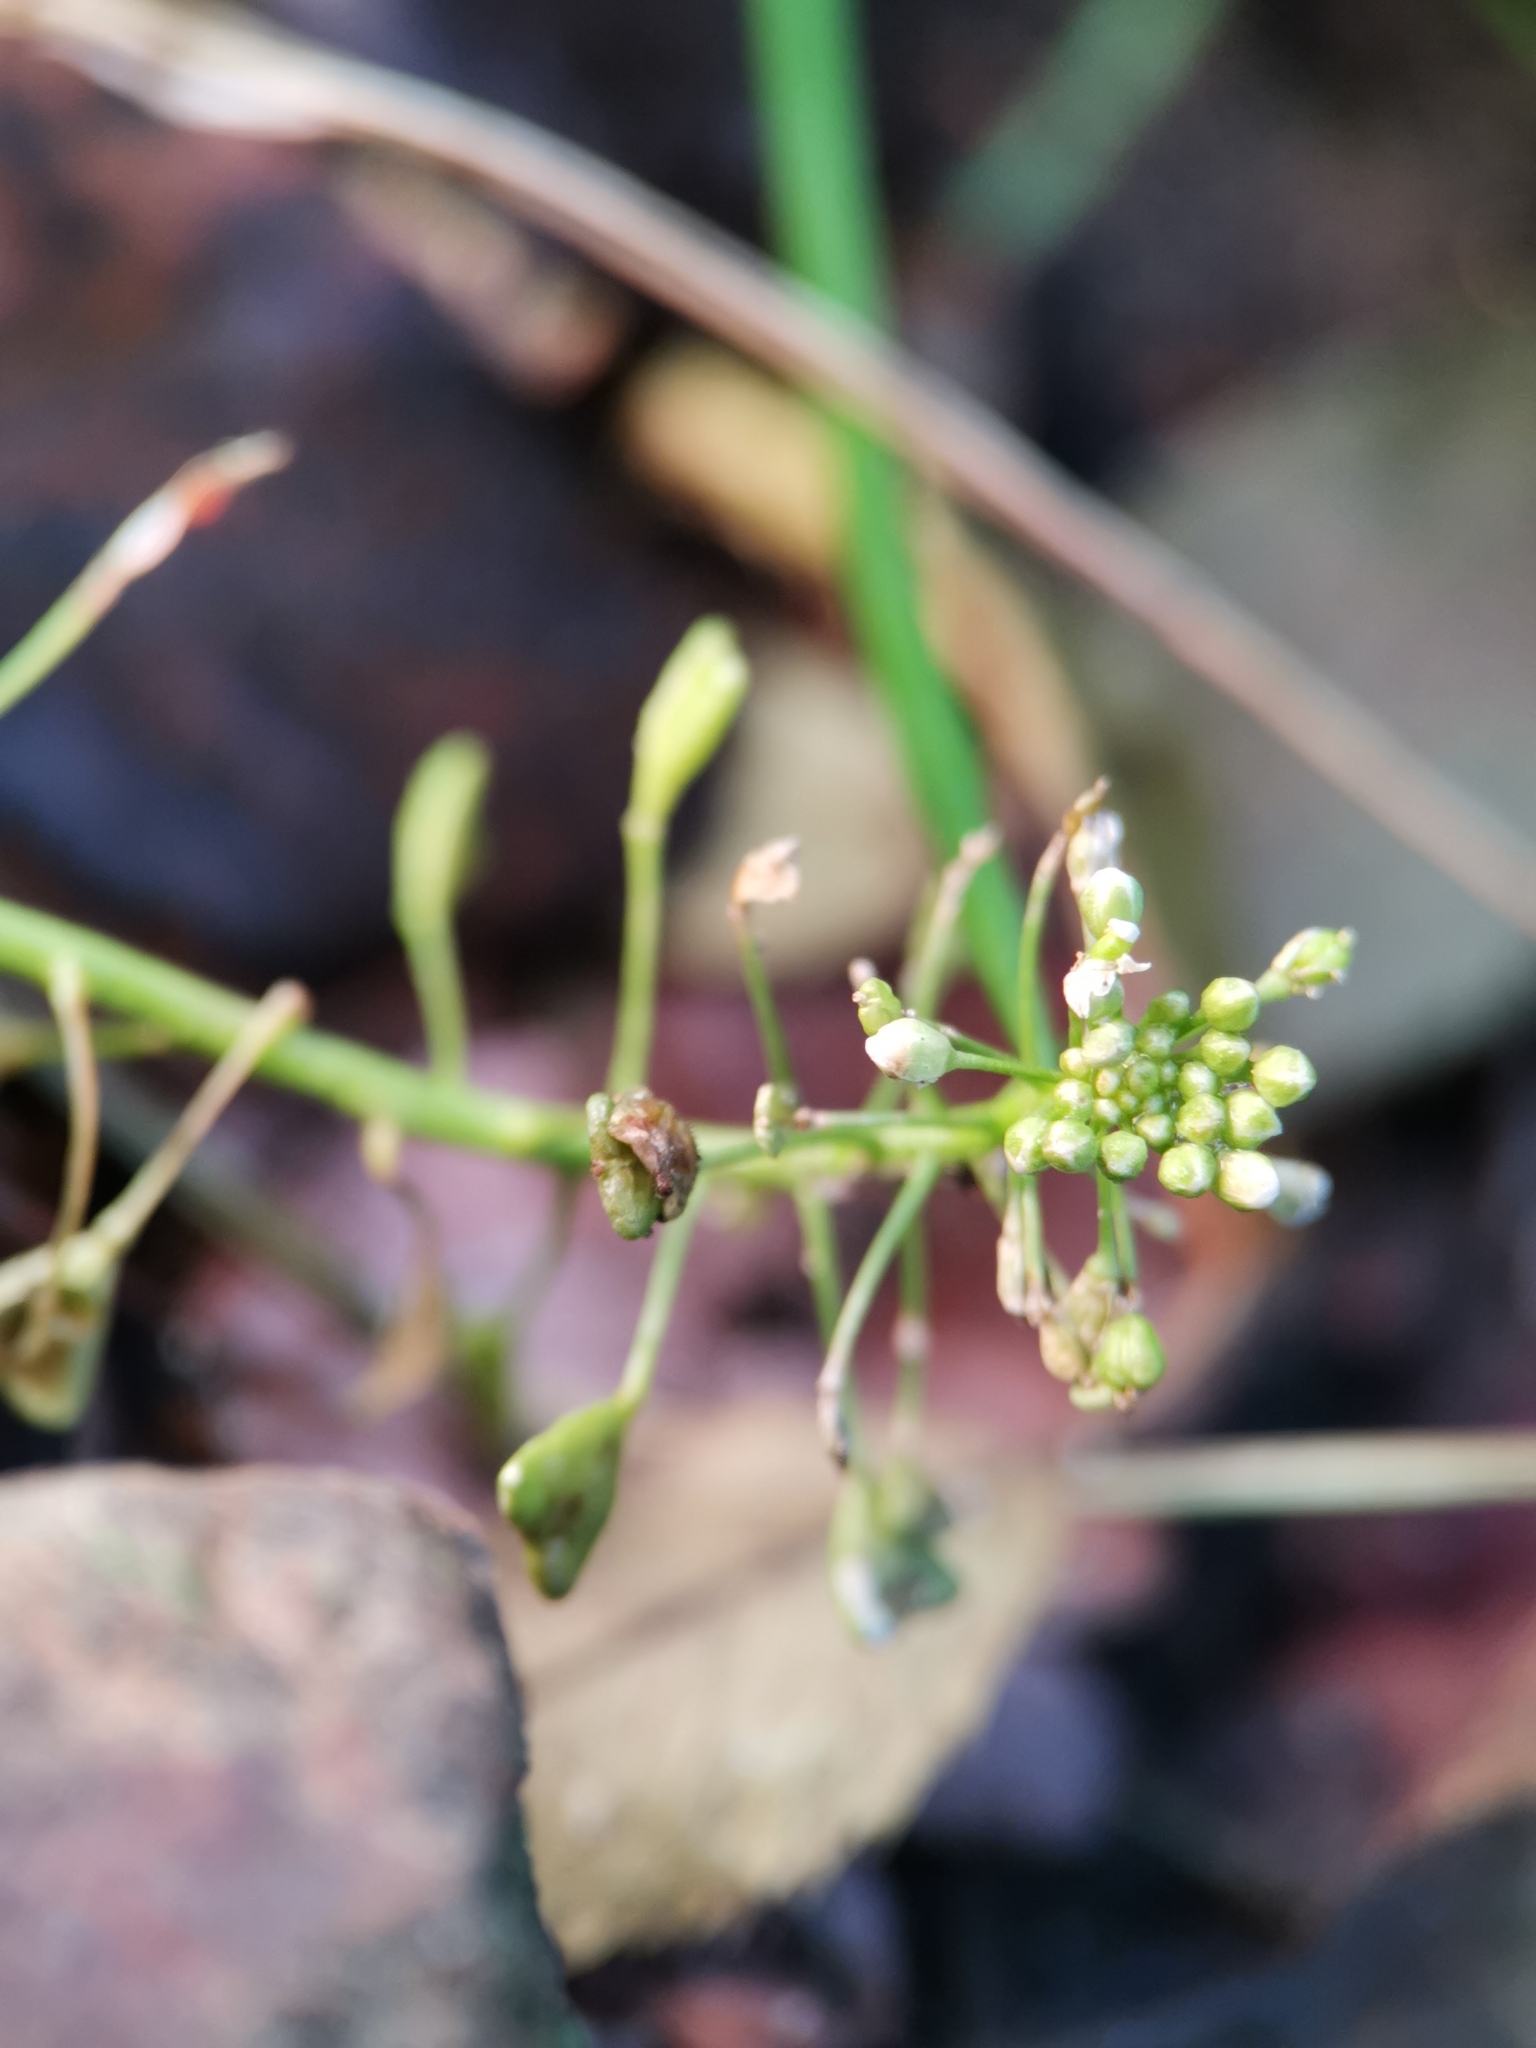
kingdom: Plantae
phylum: Tracheophyta
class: Magnoliopsida
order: Brassicales
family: Brassicaceae
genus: Capsella
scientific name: Capsella bursa-pastoris
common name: Shepherd's purse
